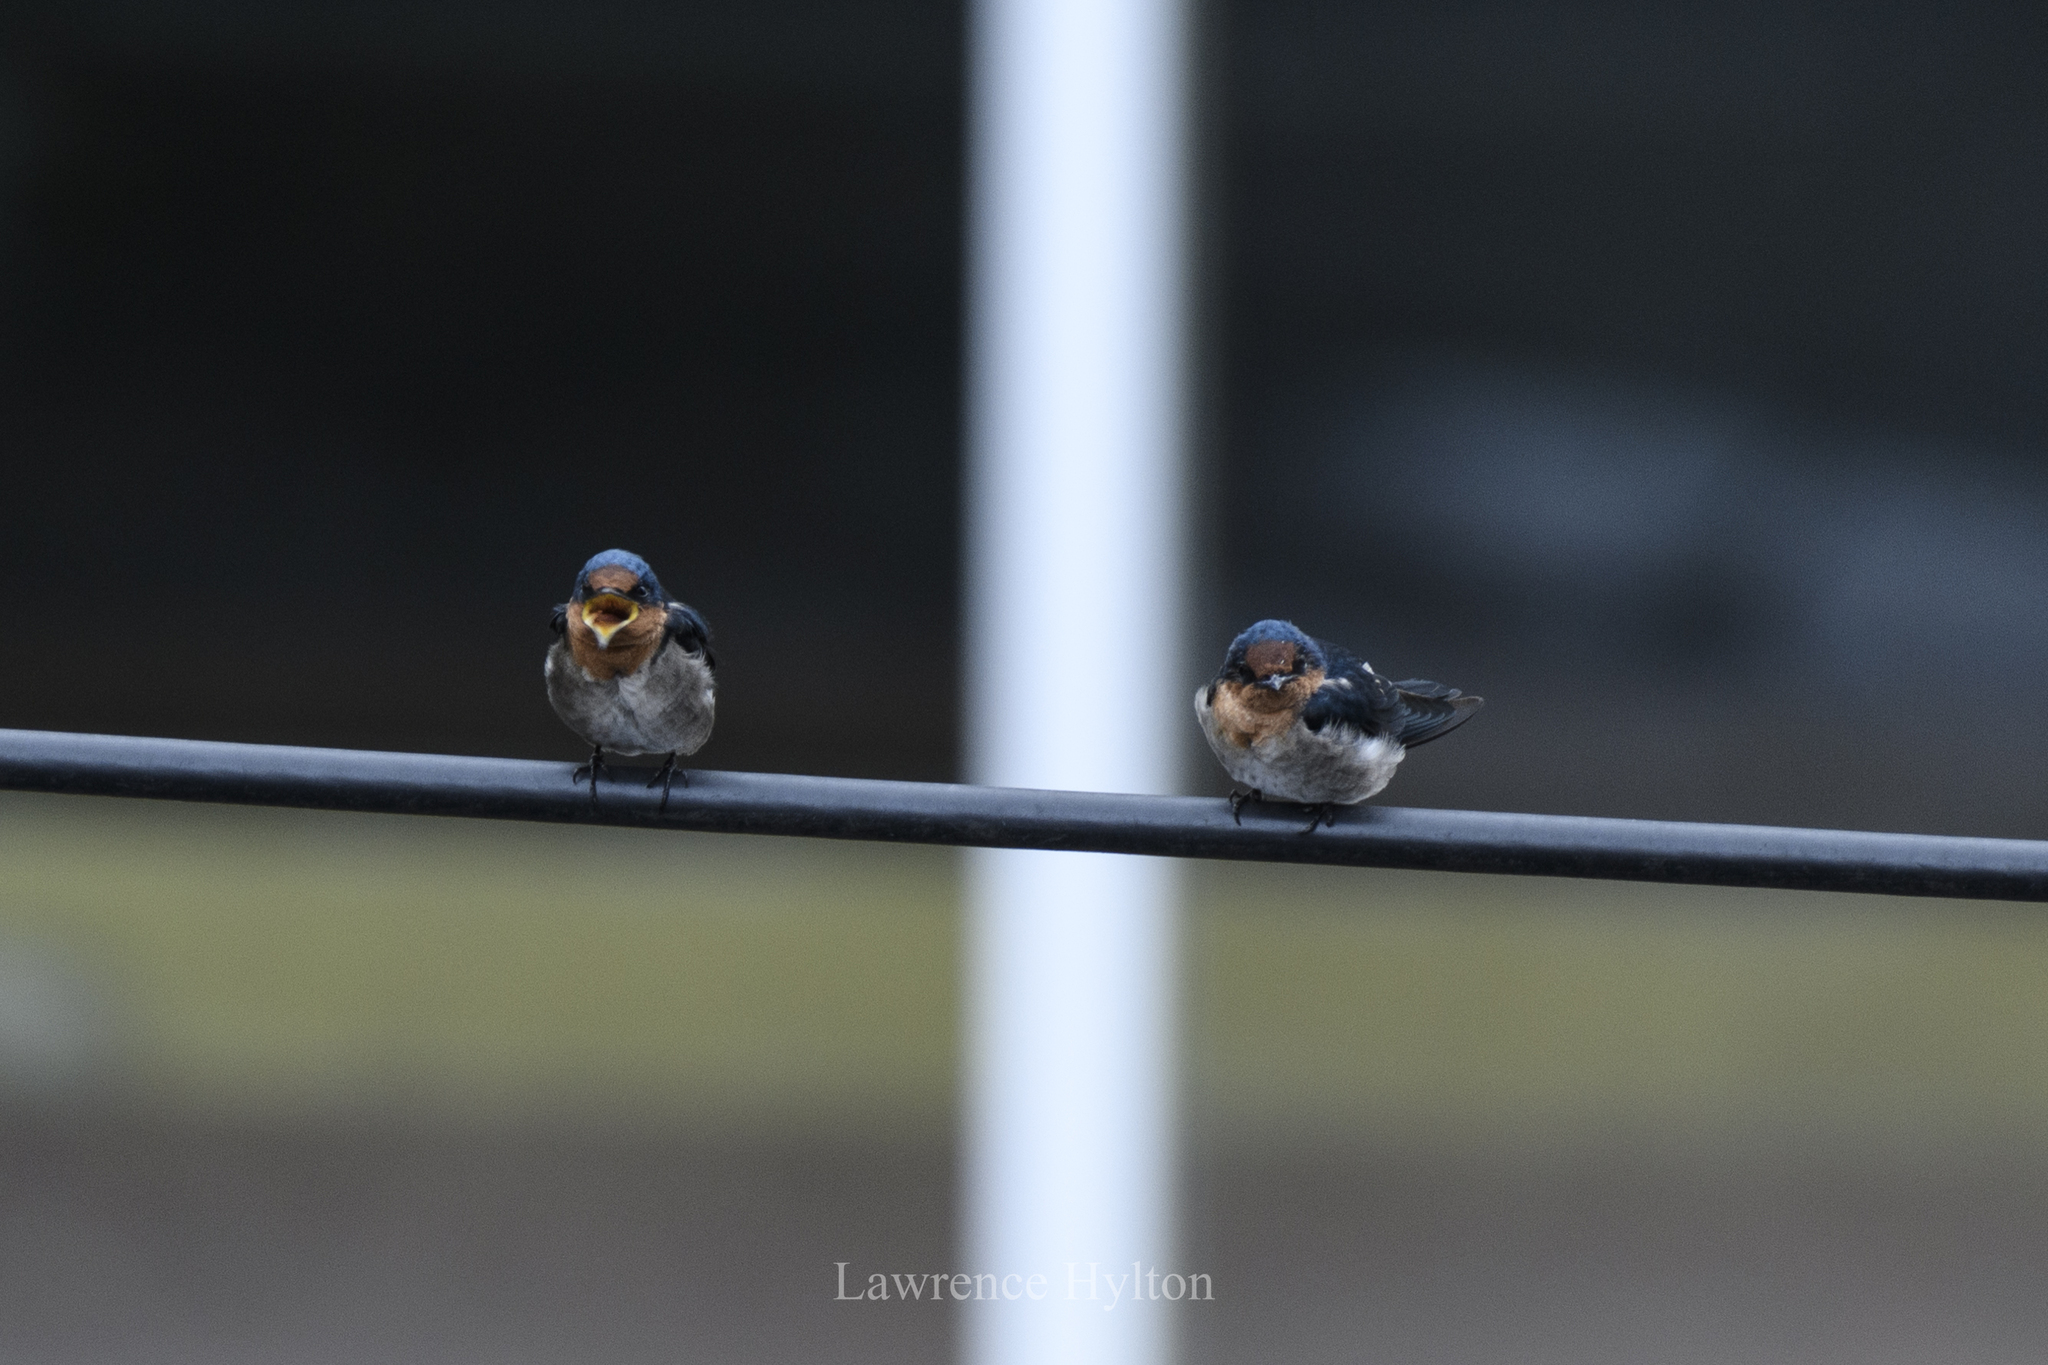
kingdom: Animalia
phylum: Chordata
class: Aves
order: Passeriformes
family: Hirundinidae
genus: Hirundo
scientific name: Hirundo tahitica
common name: Pacific swallow
